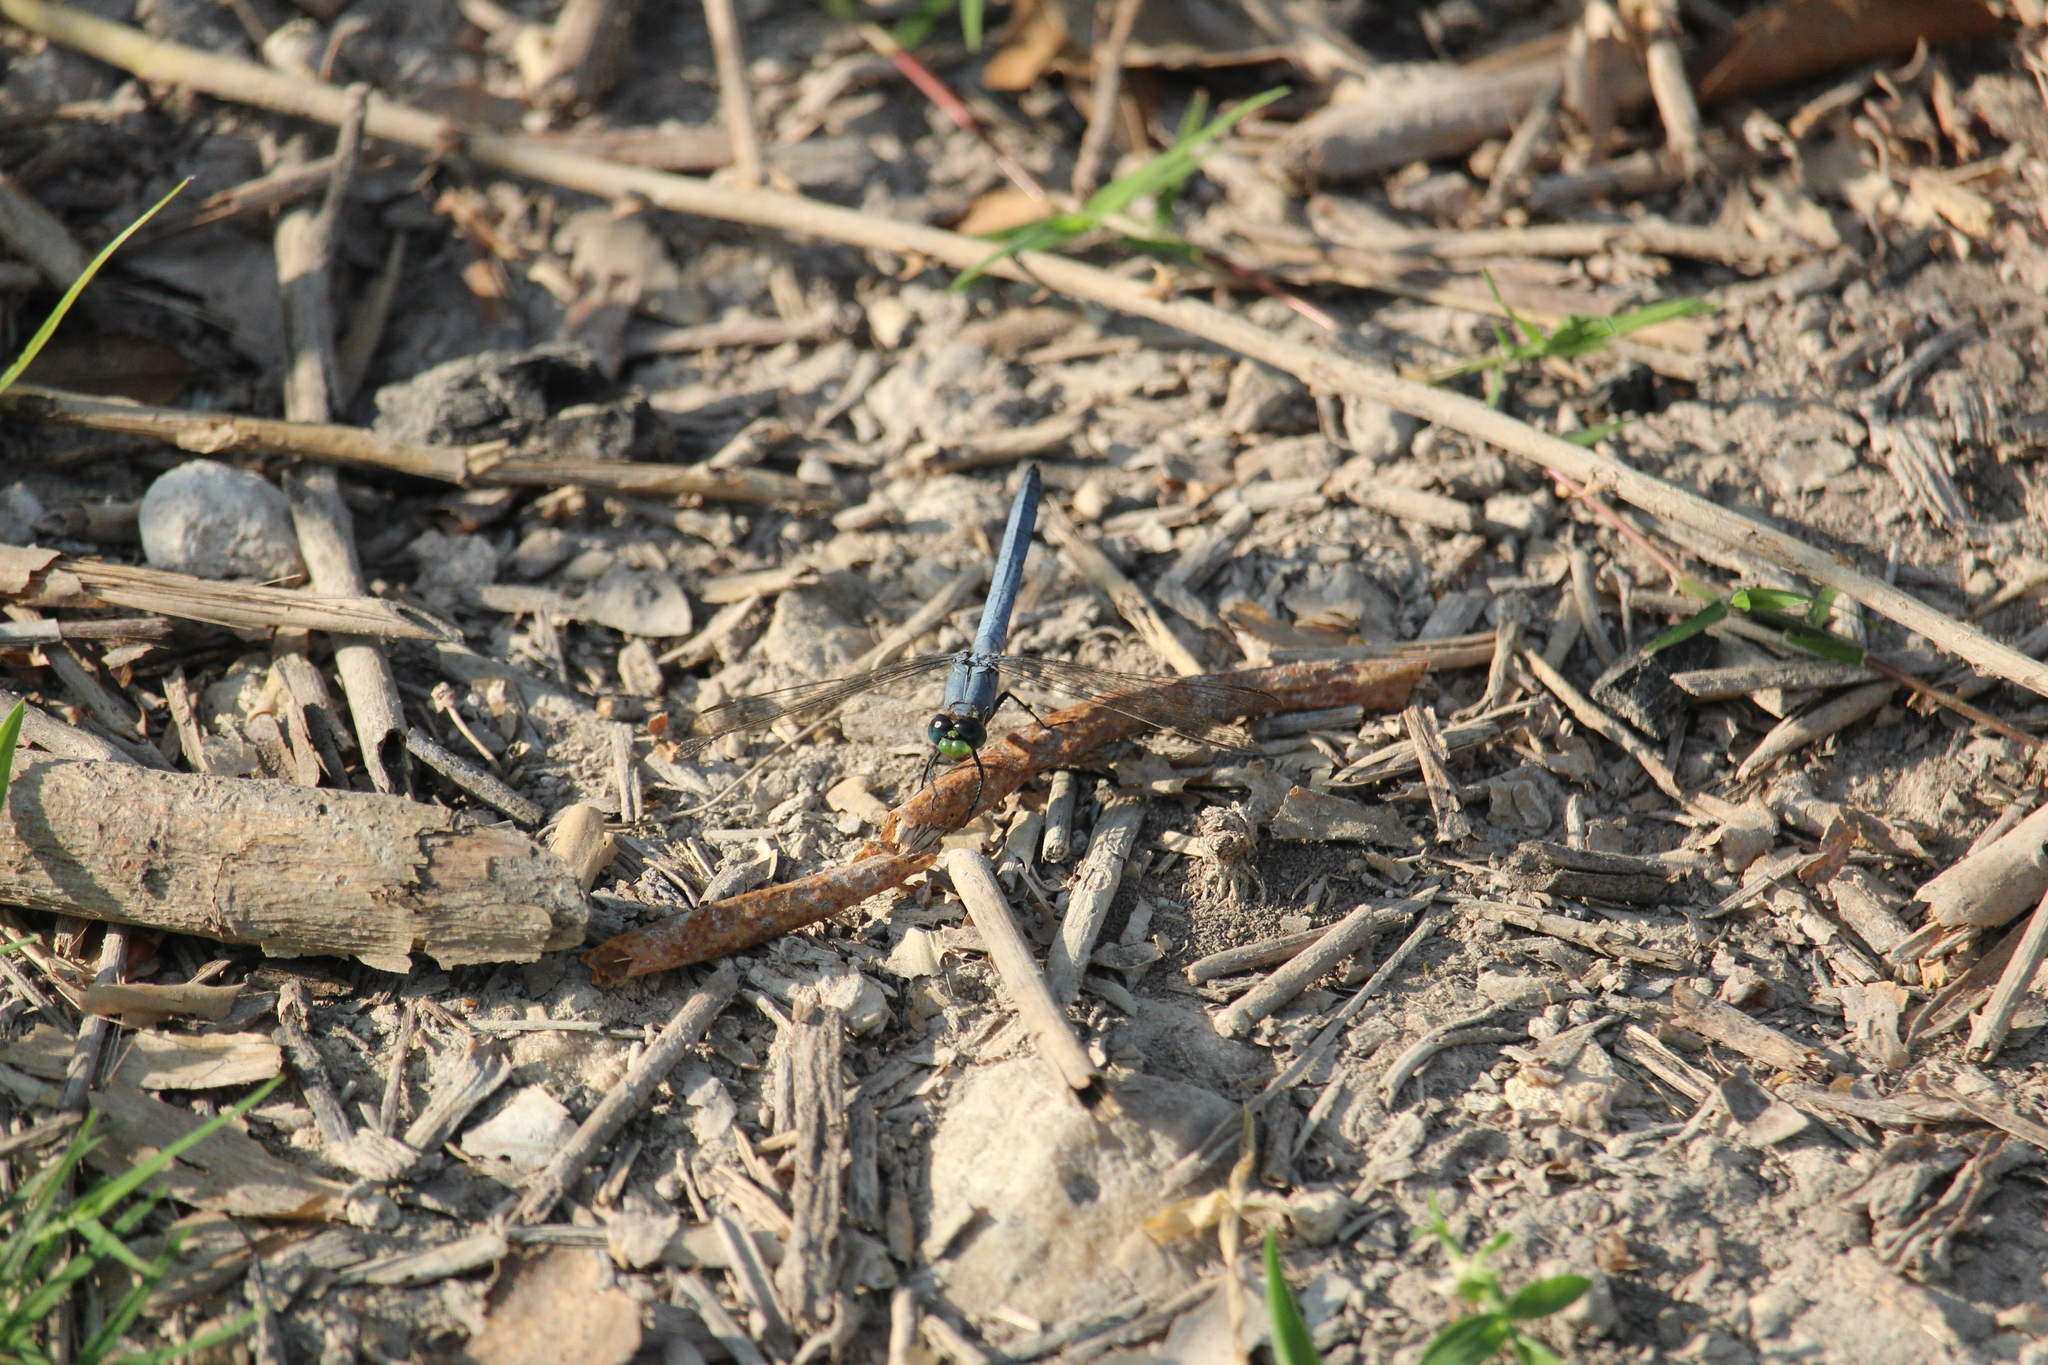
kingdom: Animalia
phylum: Arthropoda
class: Insecta
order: Odonata
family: Libellulidae
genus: Erythemis
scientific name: Erythemis simplicicollis
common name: Eastern pondhawk
